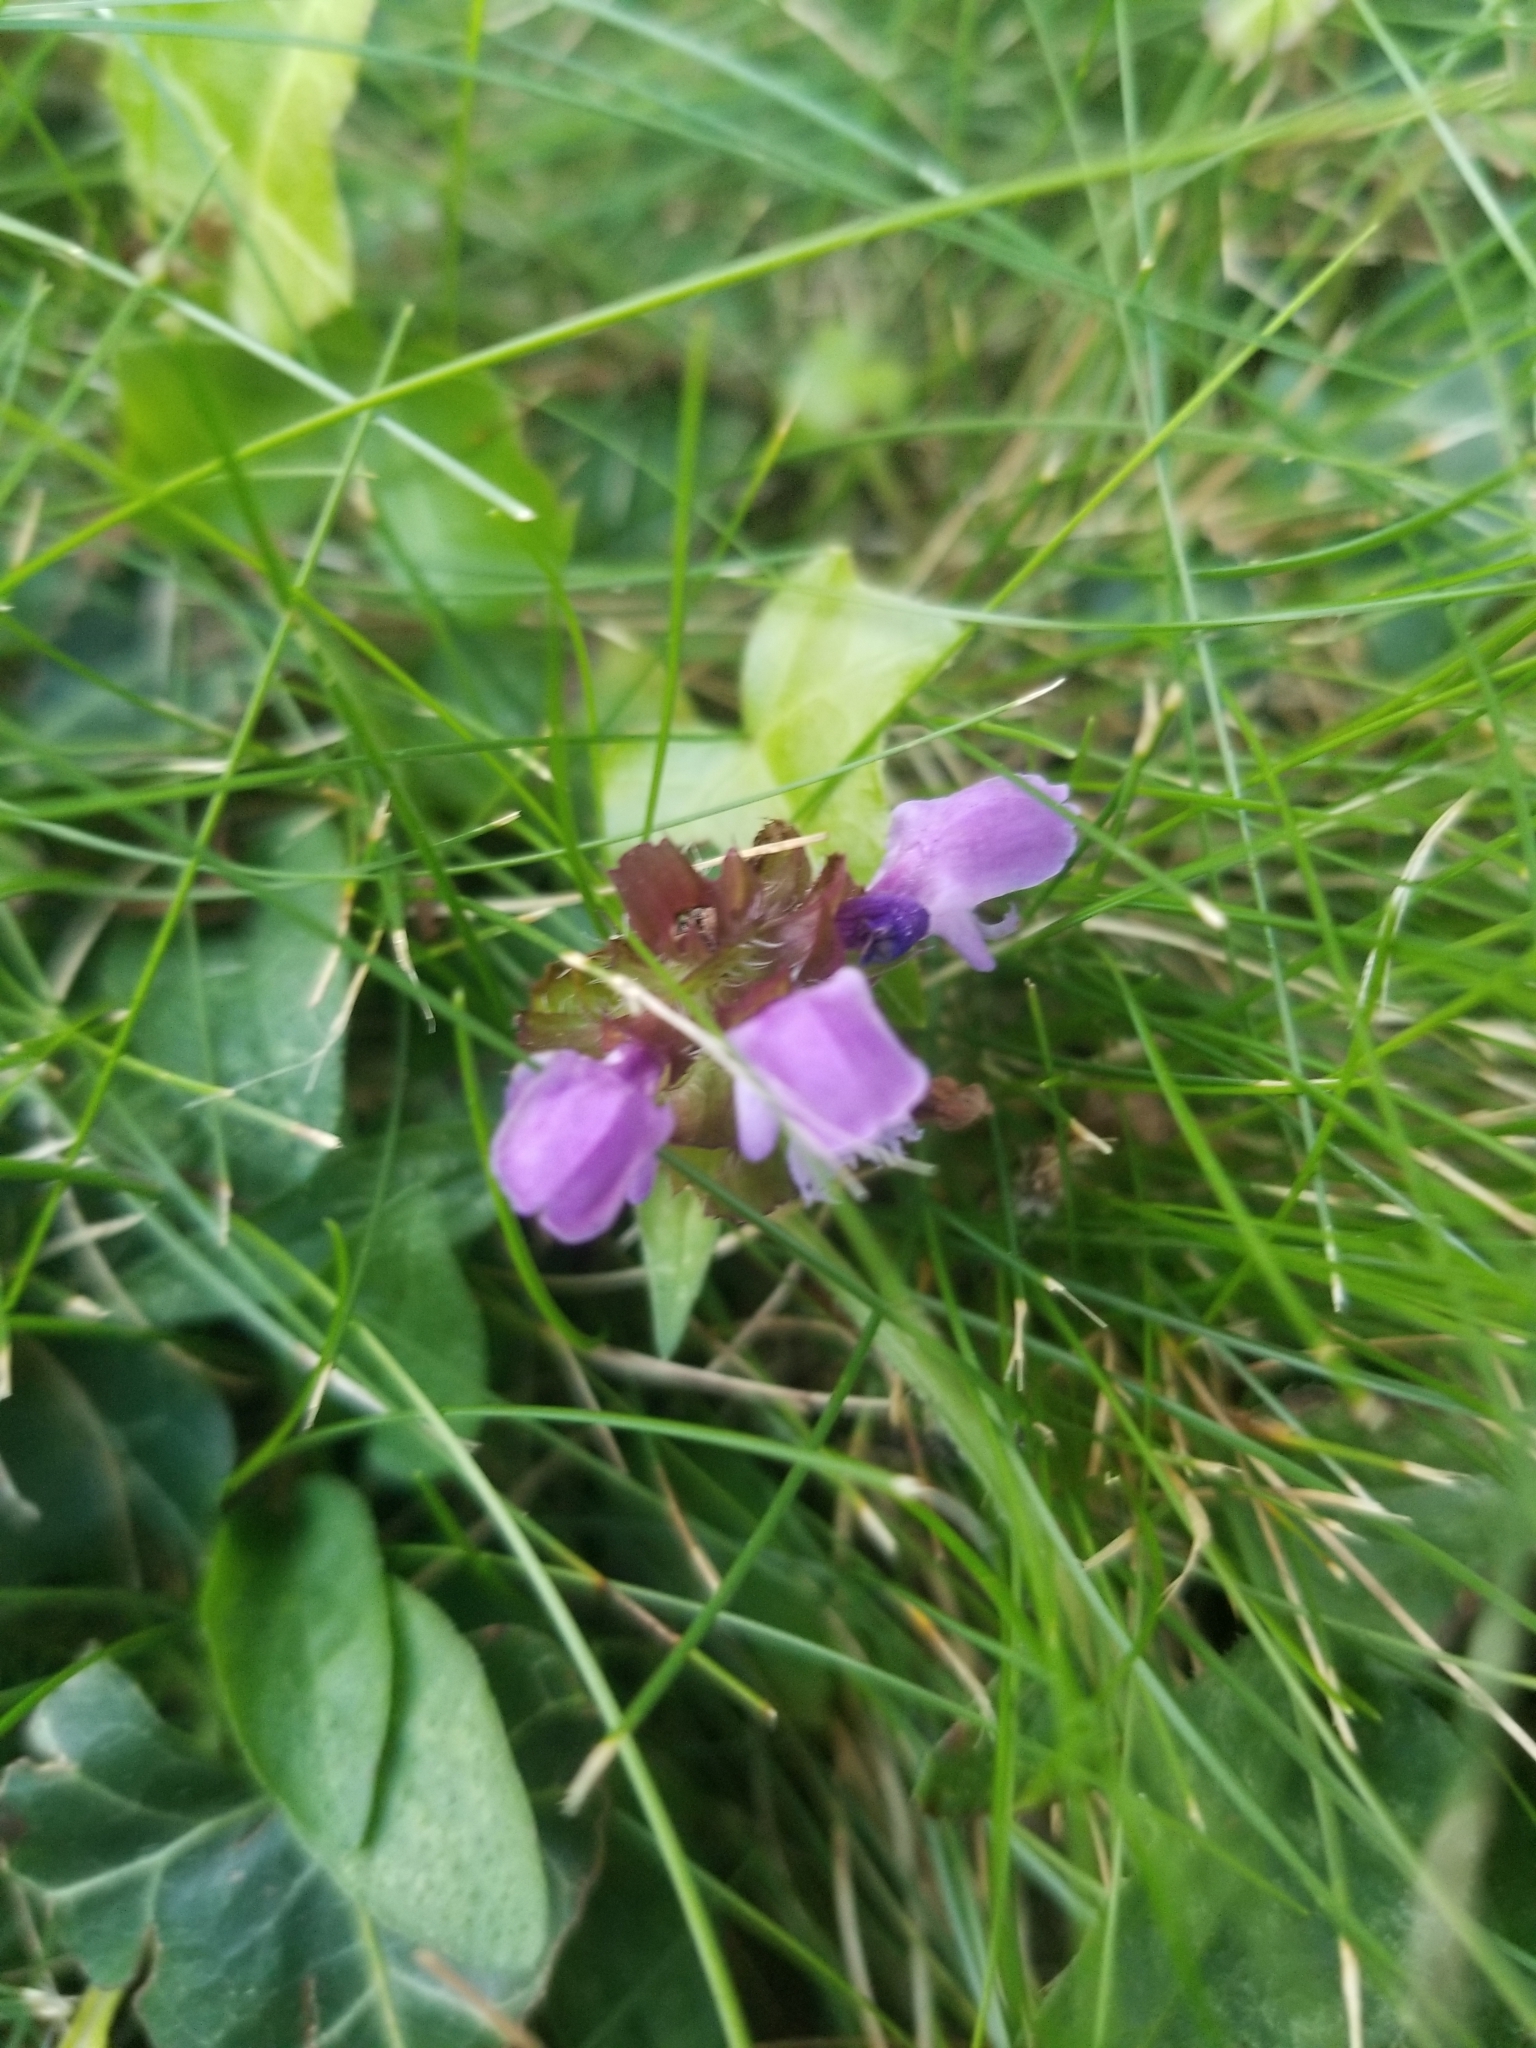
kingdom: Plantae
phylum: Tracheophyta
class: Magnoliopsida
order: Lamiales
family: Lamiaceae
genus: Prunella
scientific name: Prunella vulgaris
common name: Heal-all
